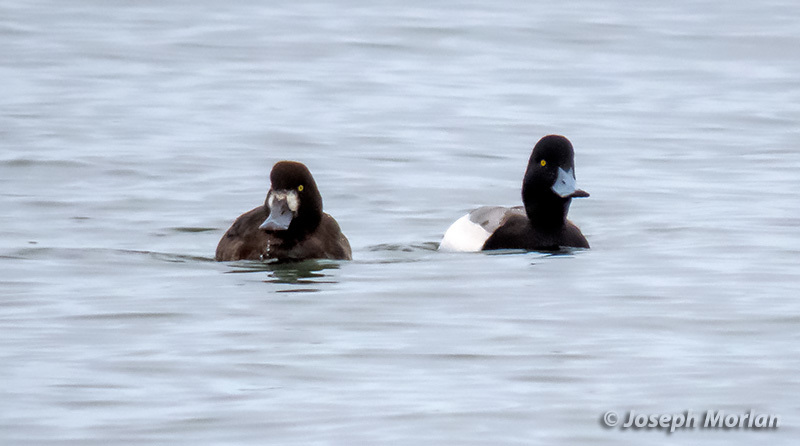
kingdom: Animalia
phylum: Chordata
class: Aves
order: Anseriformes
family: Anatidae
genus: Aythya
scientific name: Aythya marila
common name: Greater scaup
